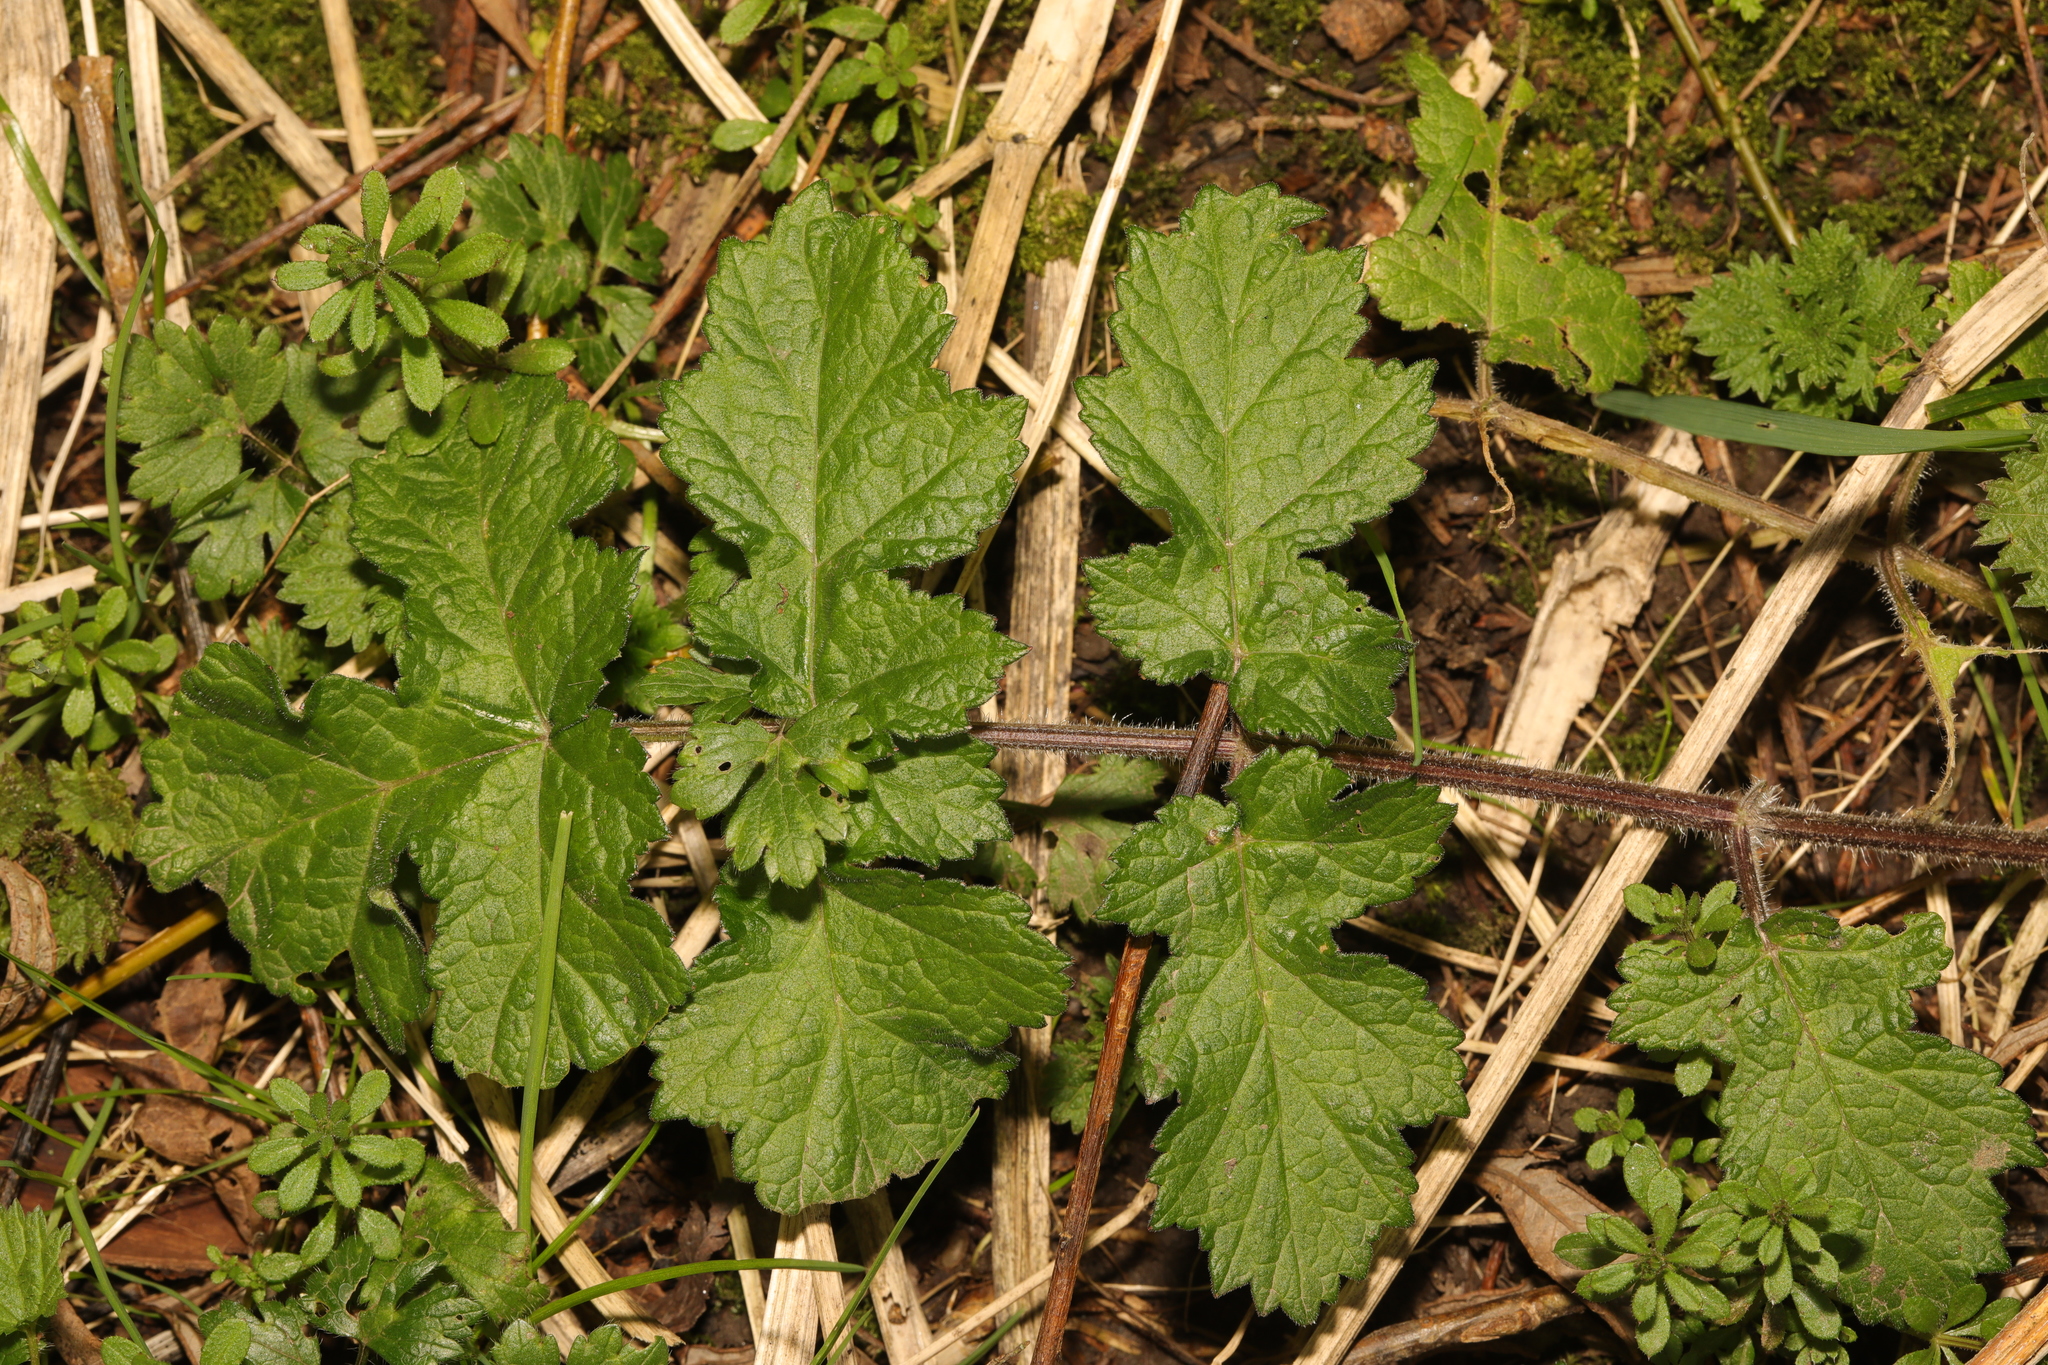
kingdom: Plantae
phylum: Tracheophyta
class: Magnoliopsida
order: Apiales
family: Apiaceae
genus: Heracleum
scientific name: Heracleum sphondylium
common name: Hogweed
